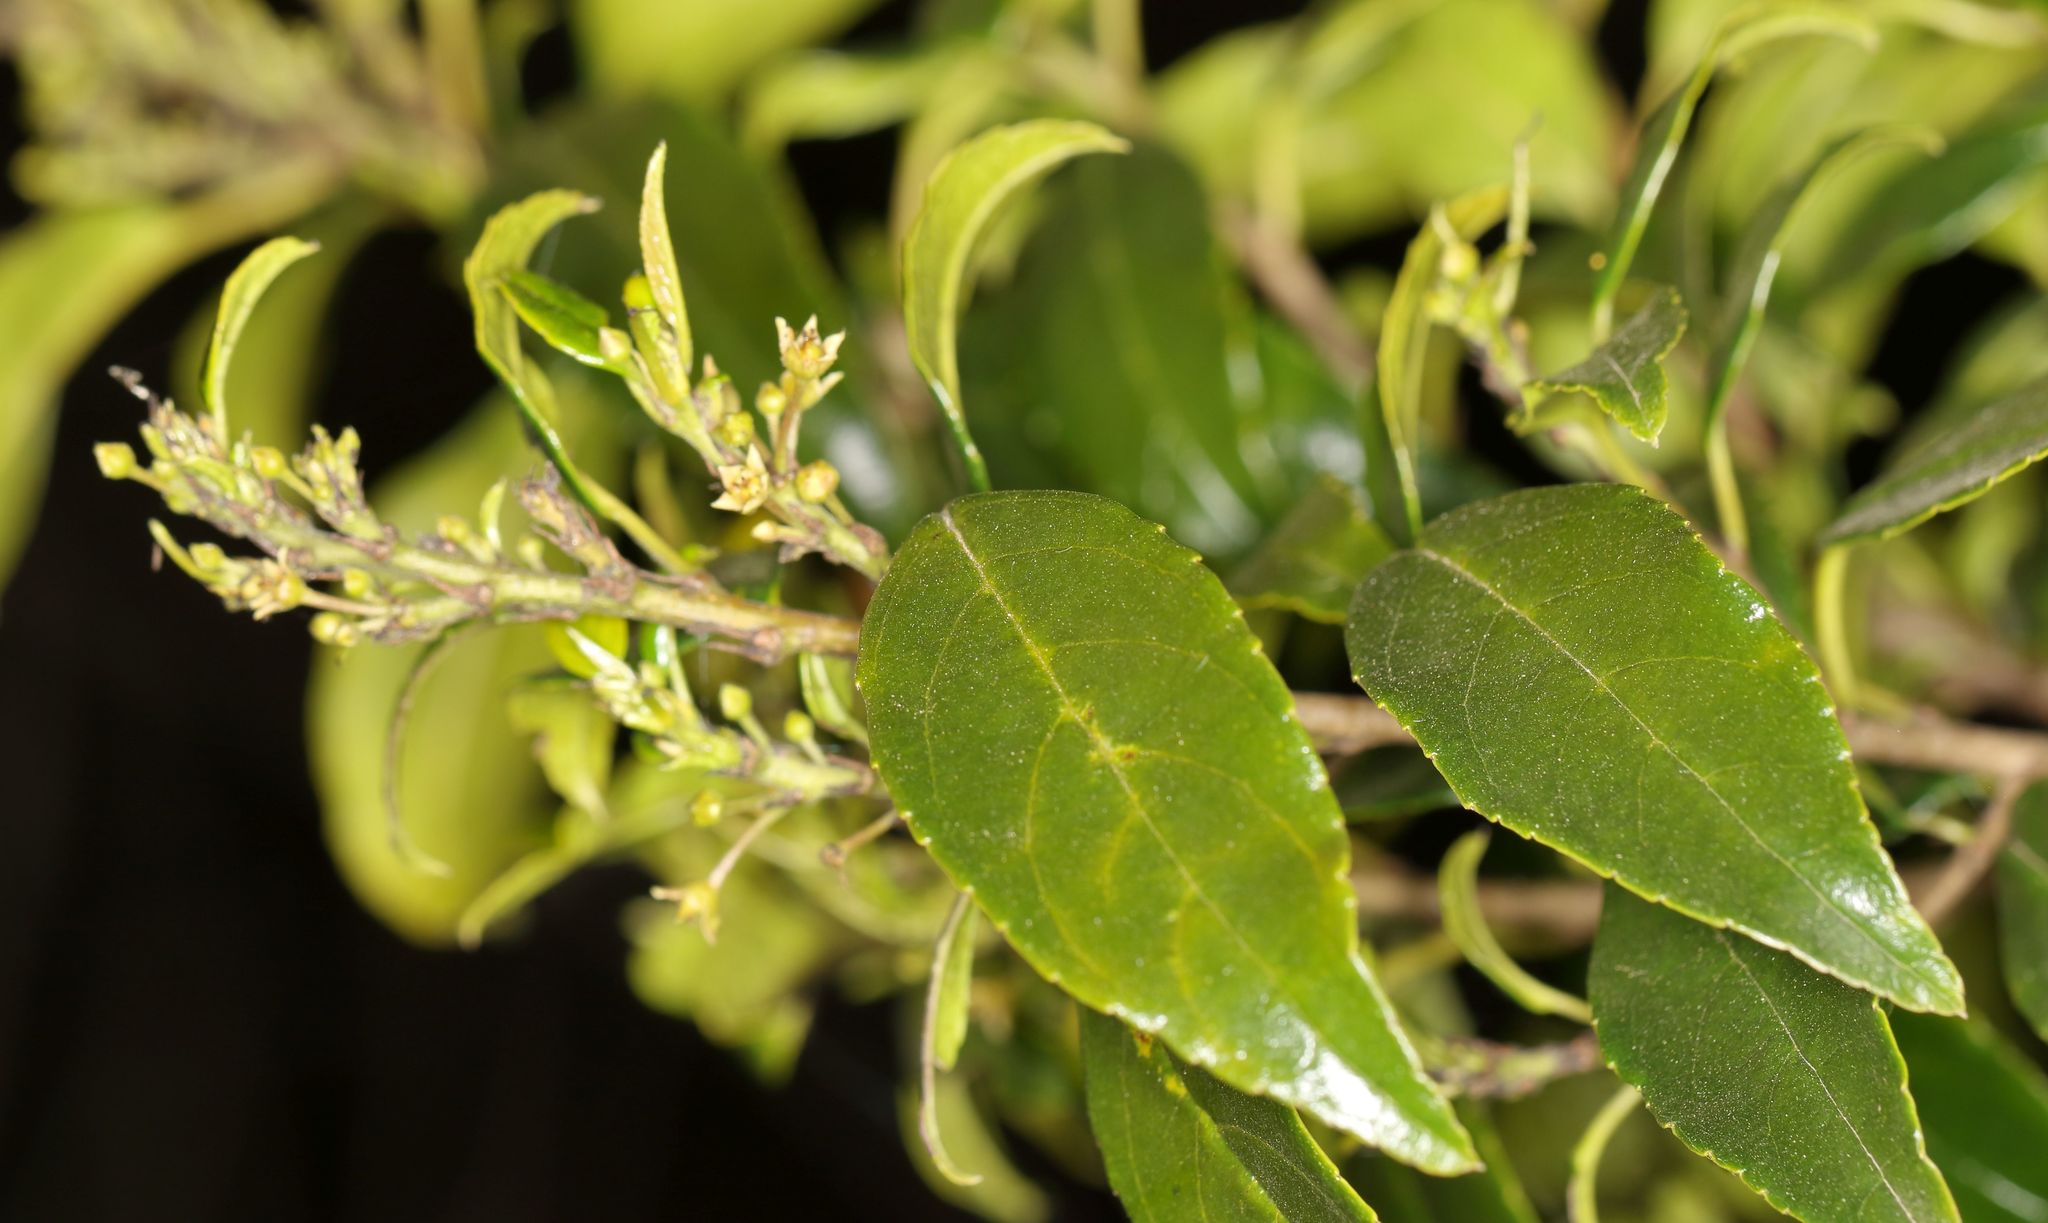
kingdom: Plantae
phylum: Tracheophyta
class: Magnoliopsida
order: Rosales
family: Rhamnaceae
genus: Rhamnus
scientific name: Rhamnus prinoides
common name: Dogwood
